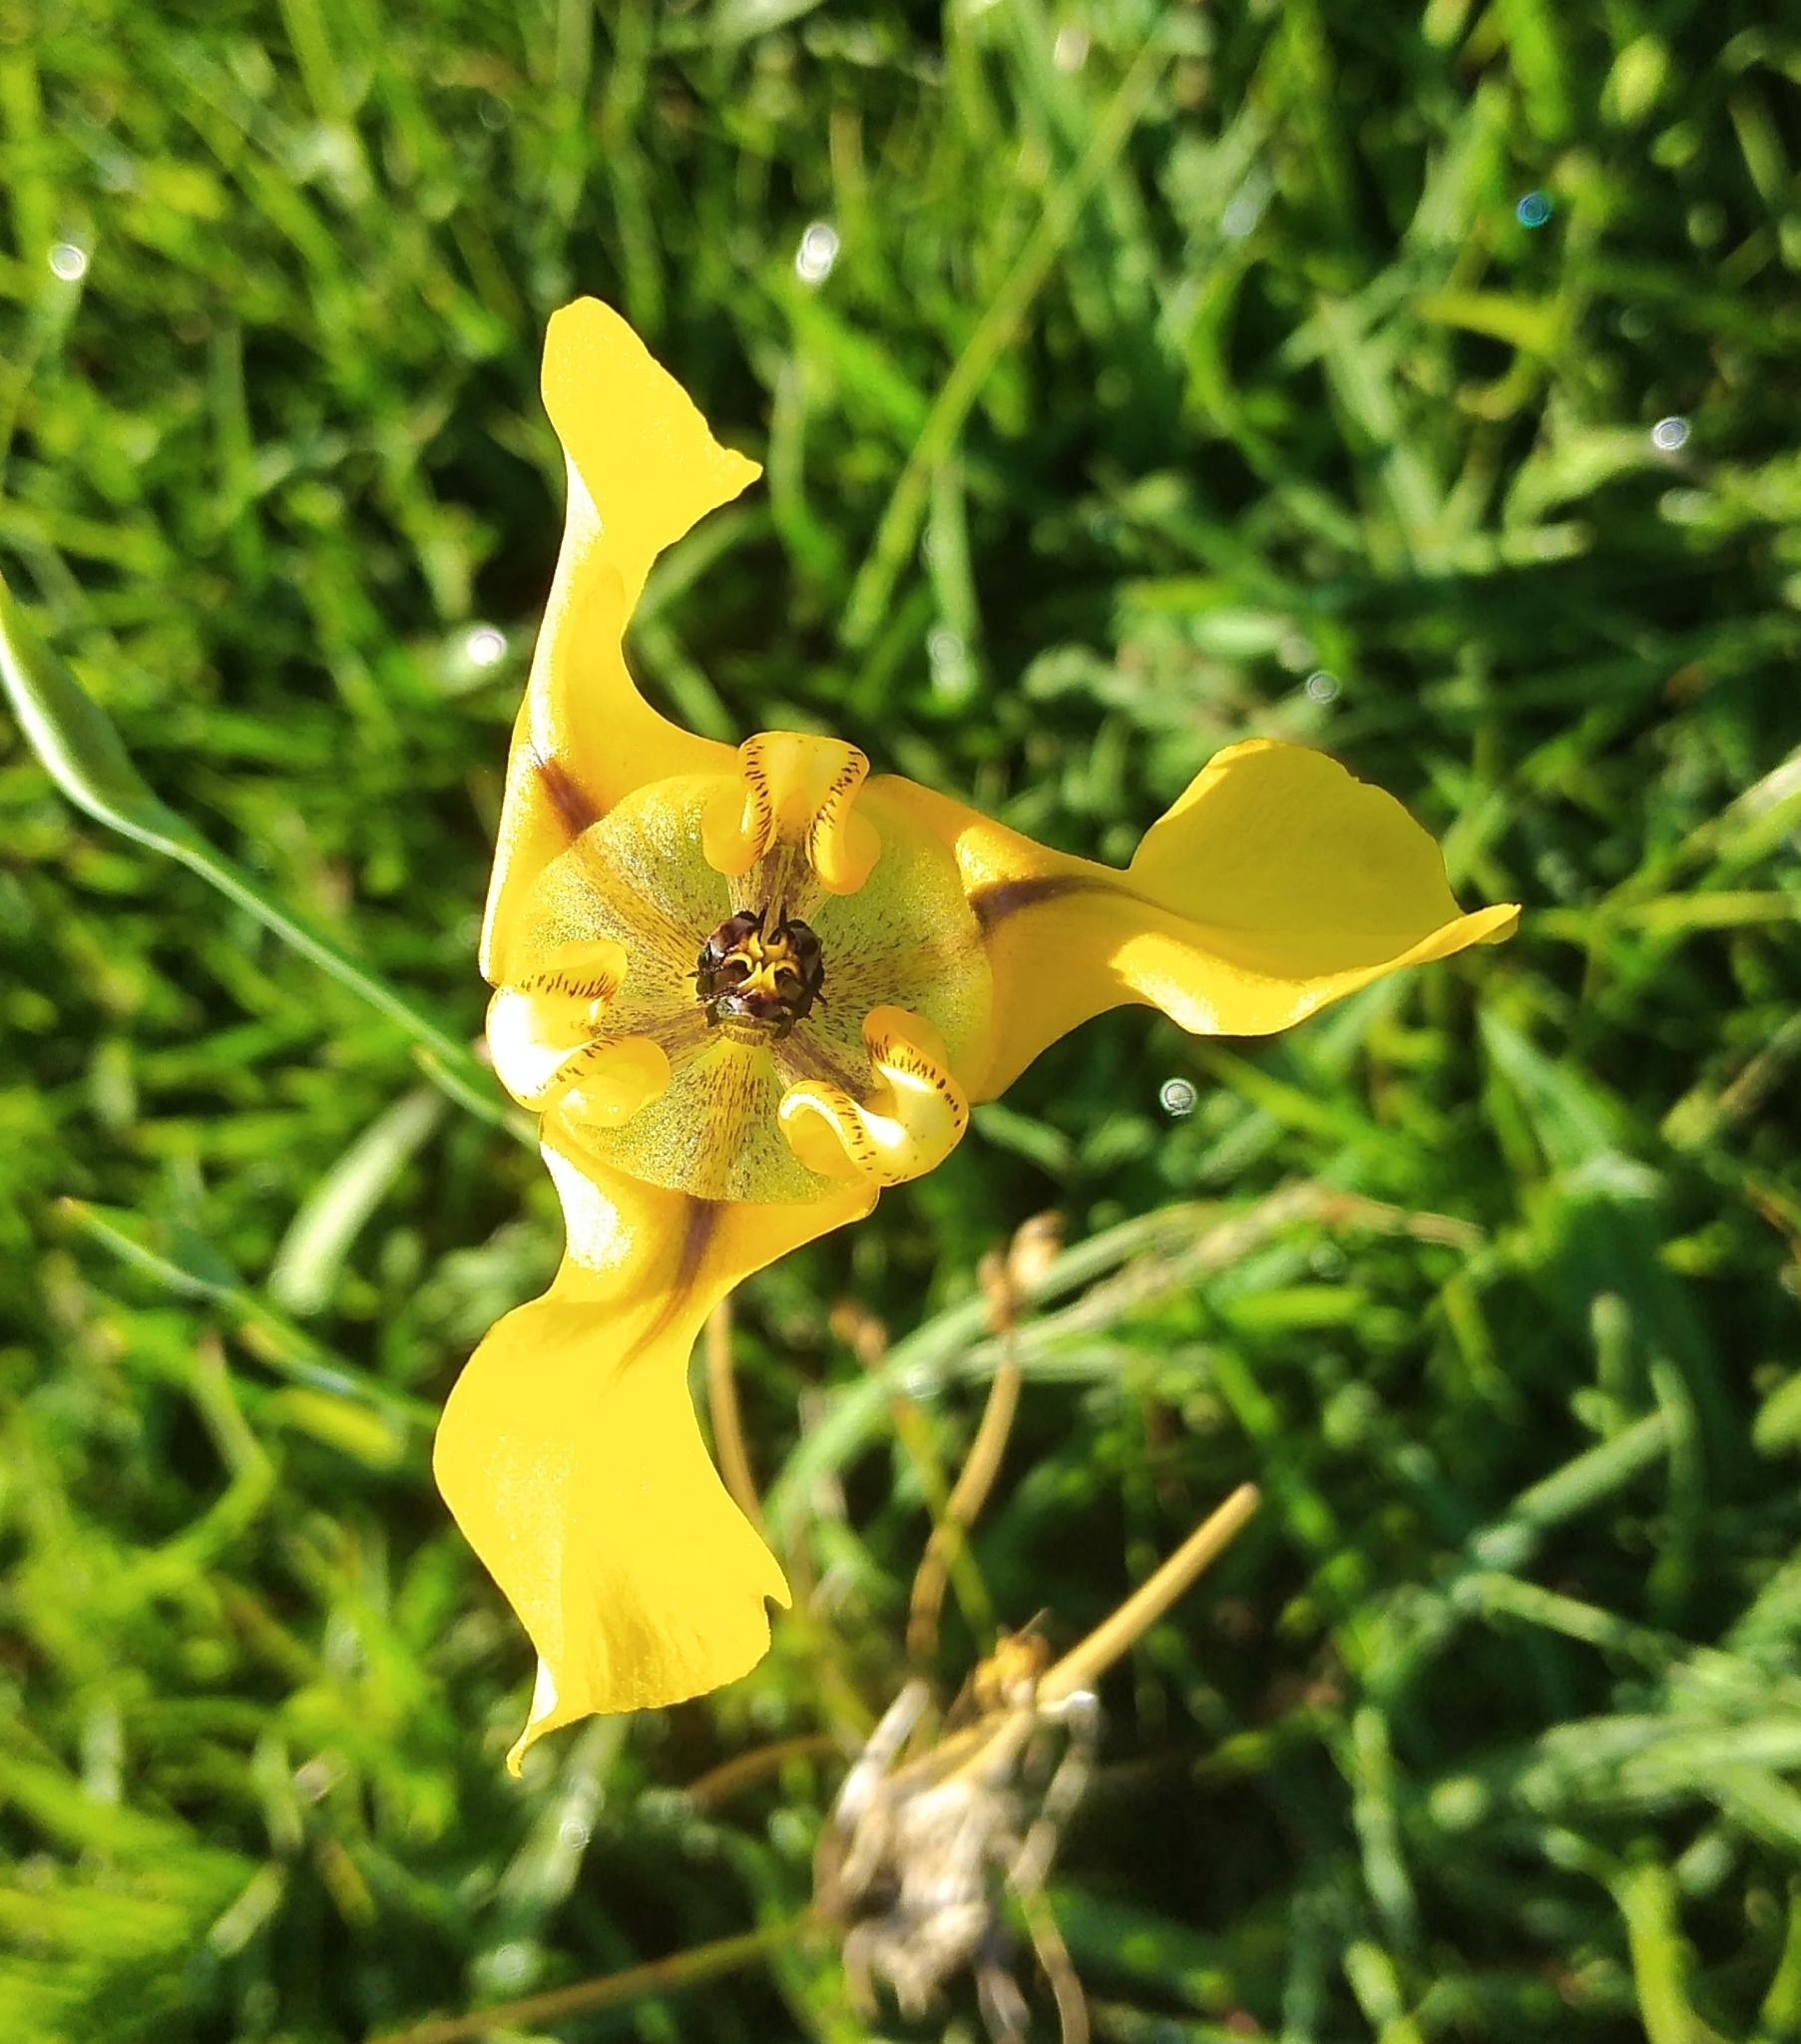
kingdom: Plantae
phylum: Tracheophyta
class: Liliopsida
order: Asparagales
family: Iridaceae
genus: Cypella
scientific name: Cypella herbertii
